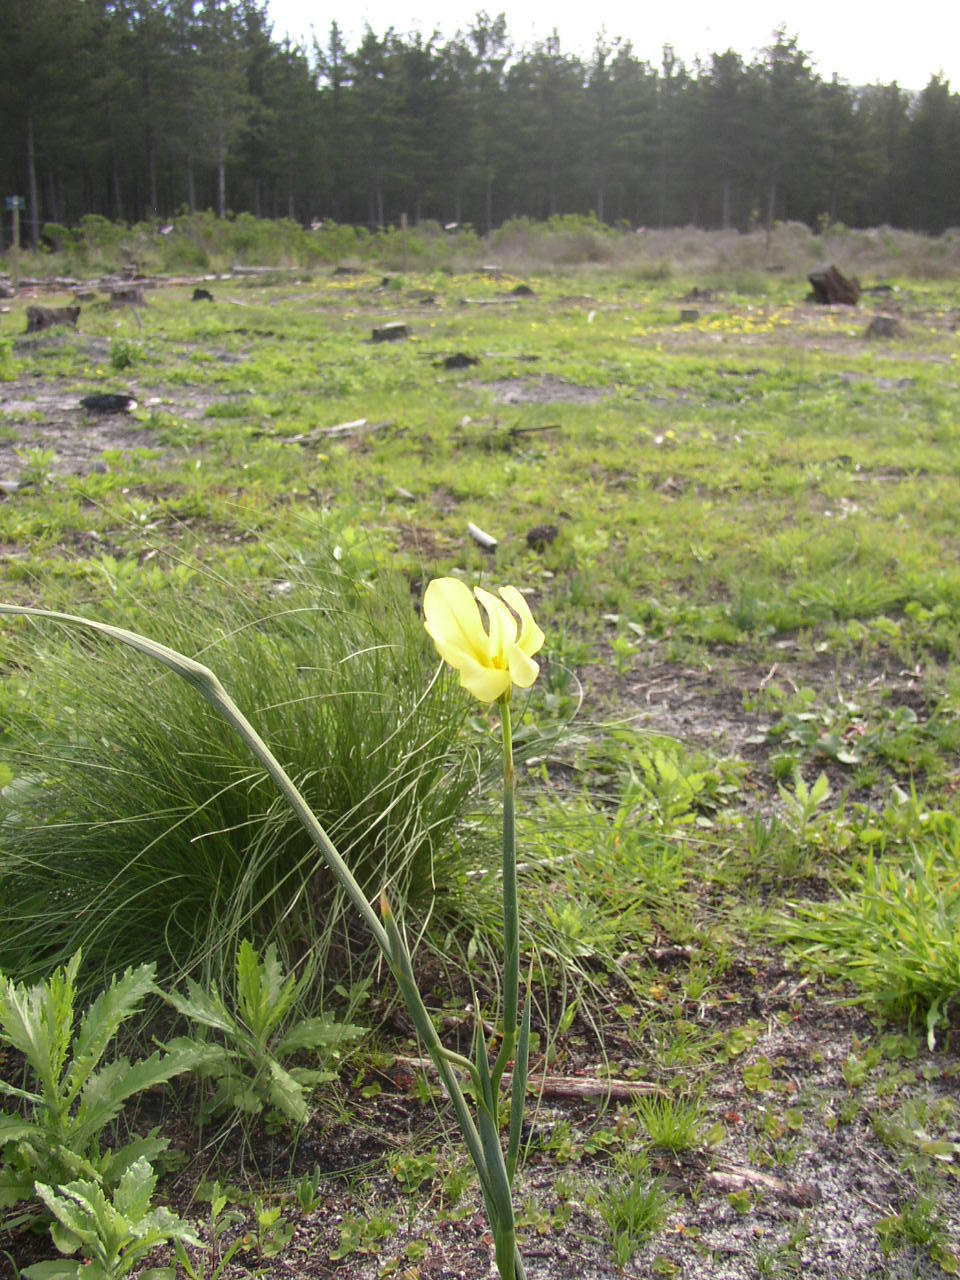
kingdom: Plantae
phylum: Tracheophyta
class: Liliopsida
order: Asparagales
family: Iridaceae
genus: Moraea
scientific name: Moraea collina
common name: Cape-tulip
